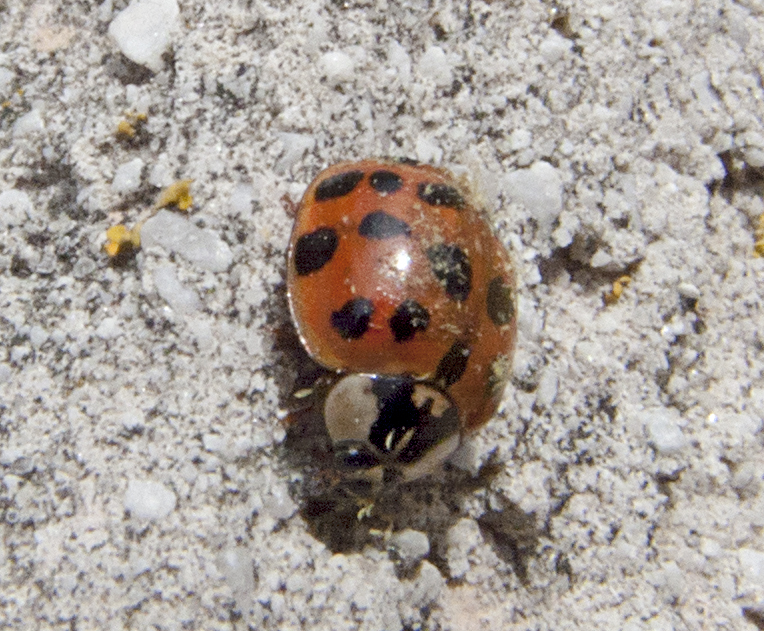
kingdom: Animalia
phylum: Arthropoda
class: Insecta
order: Coleoptera
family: Coccinellidae
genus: Harmonia
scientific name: Harmonia axyridis
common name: Harlequin ladybird
